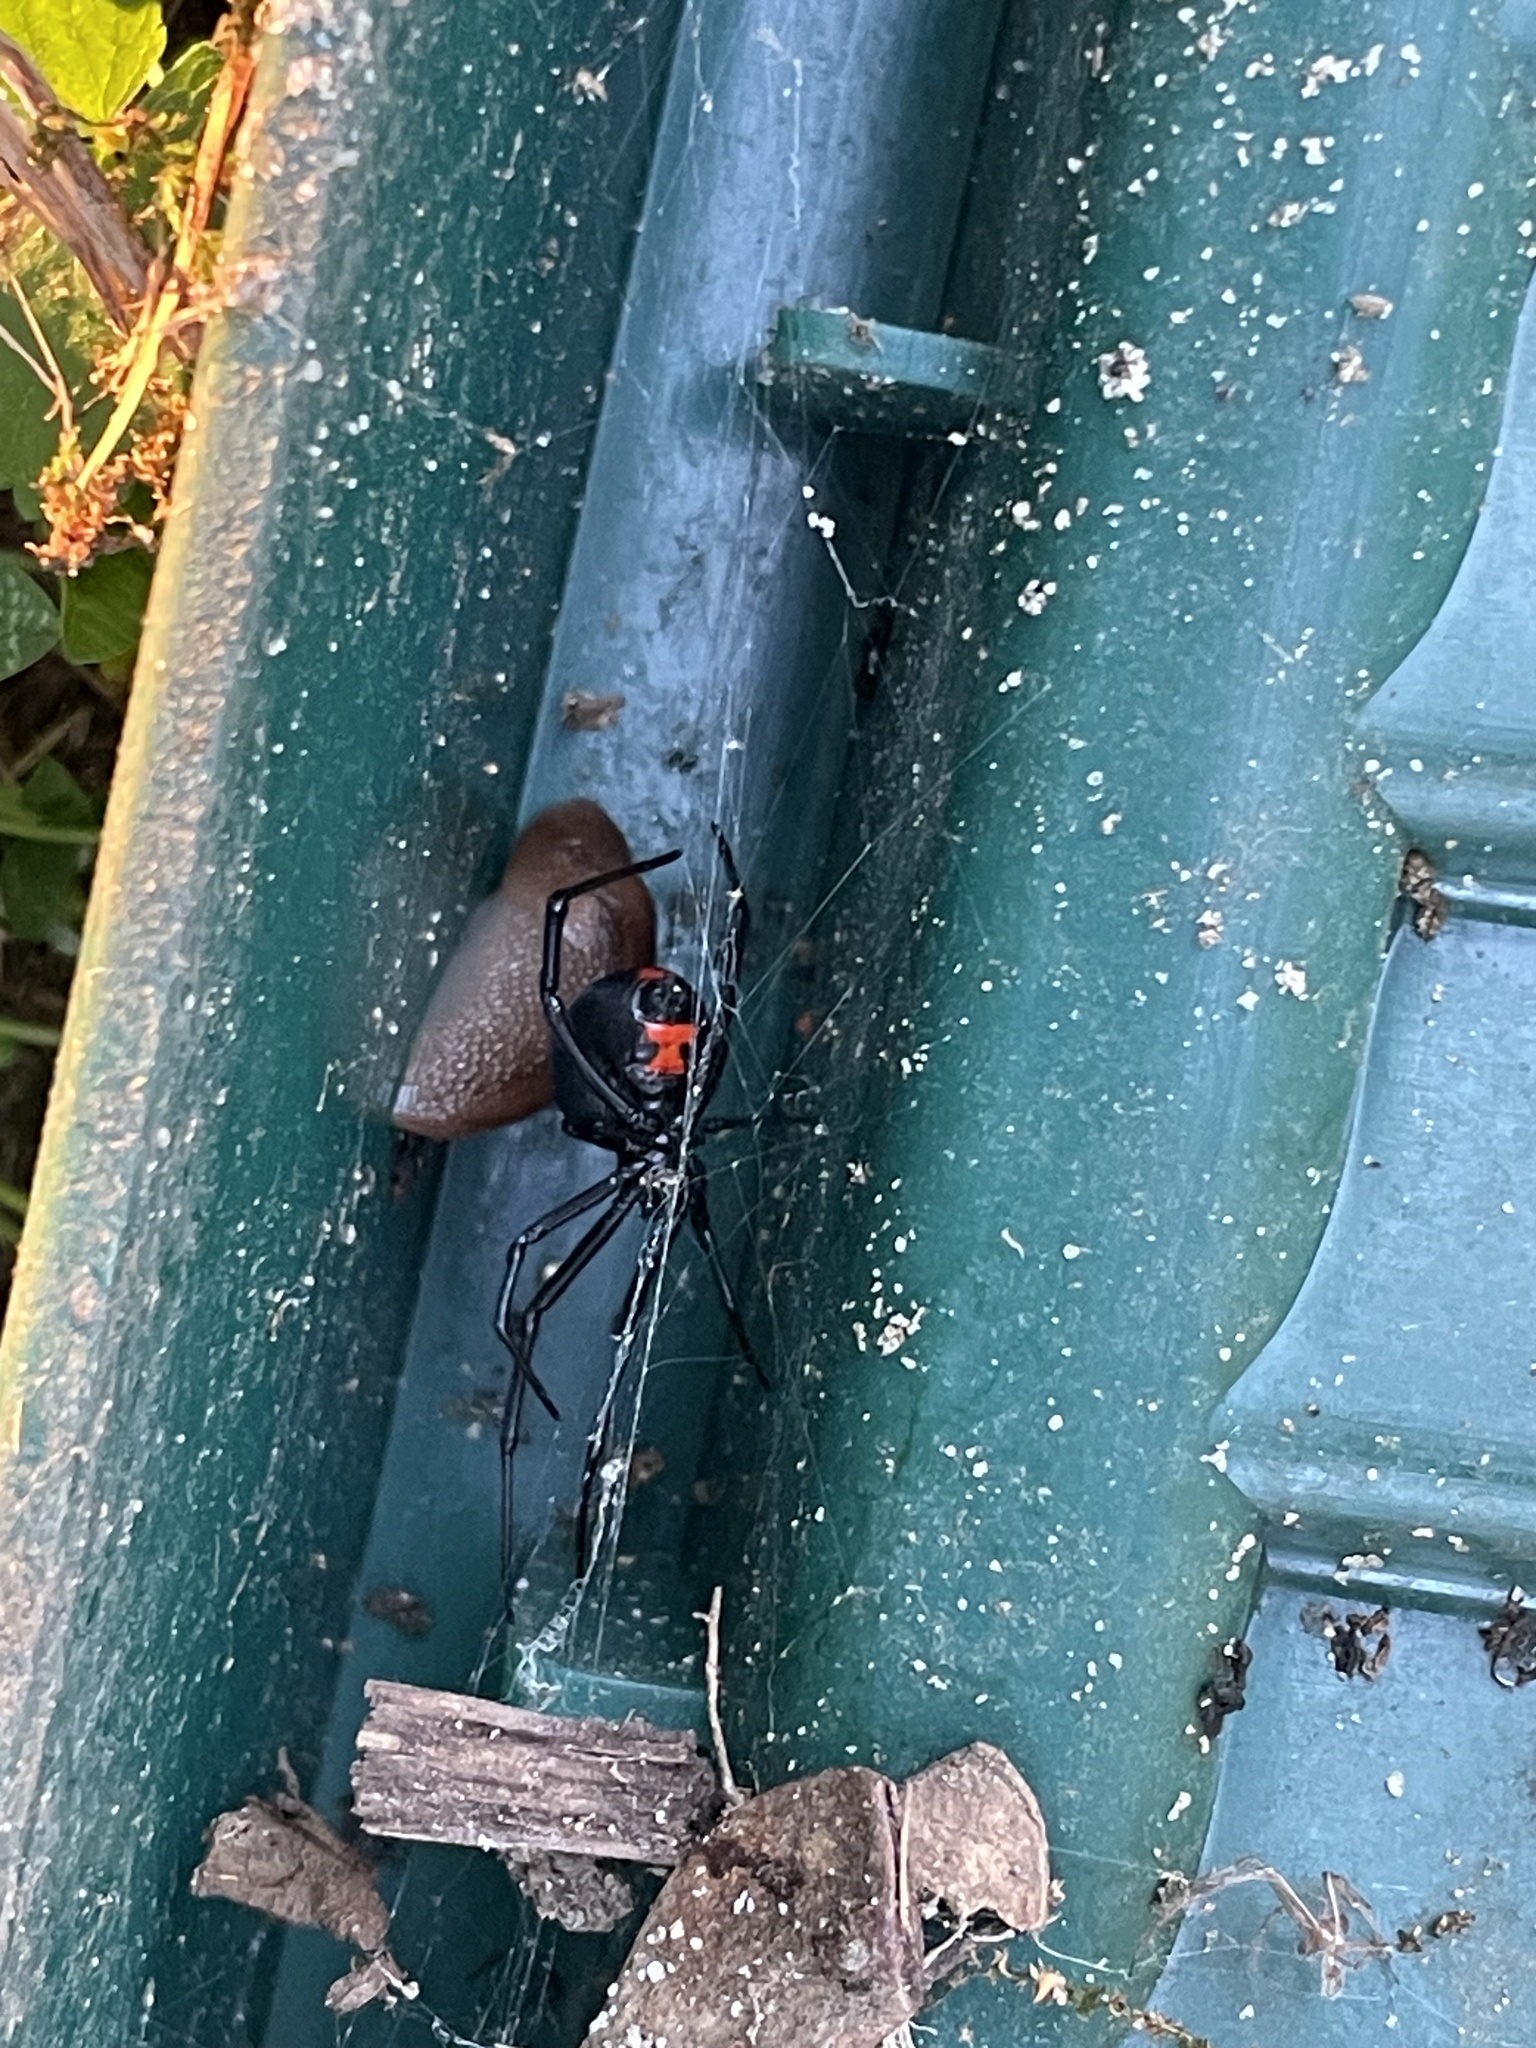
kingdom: Animalia
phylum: Arthropoda
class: Arachnida
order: Araneae
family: Theridiidae
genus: Latrodectus
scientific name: Latrodectus mactans
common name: Cobweb spiders
